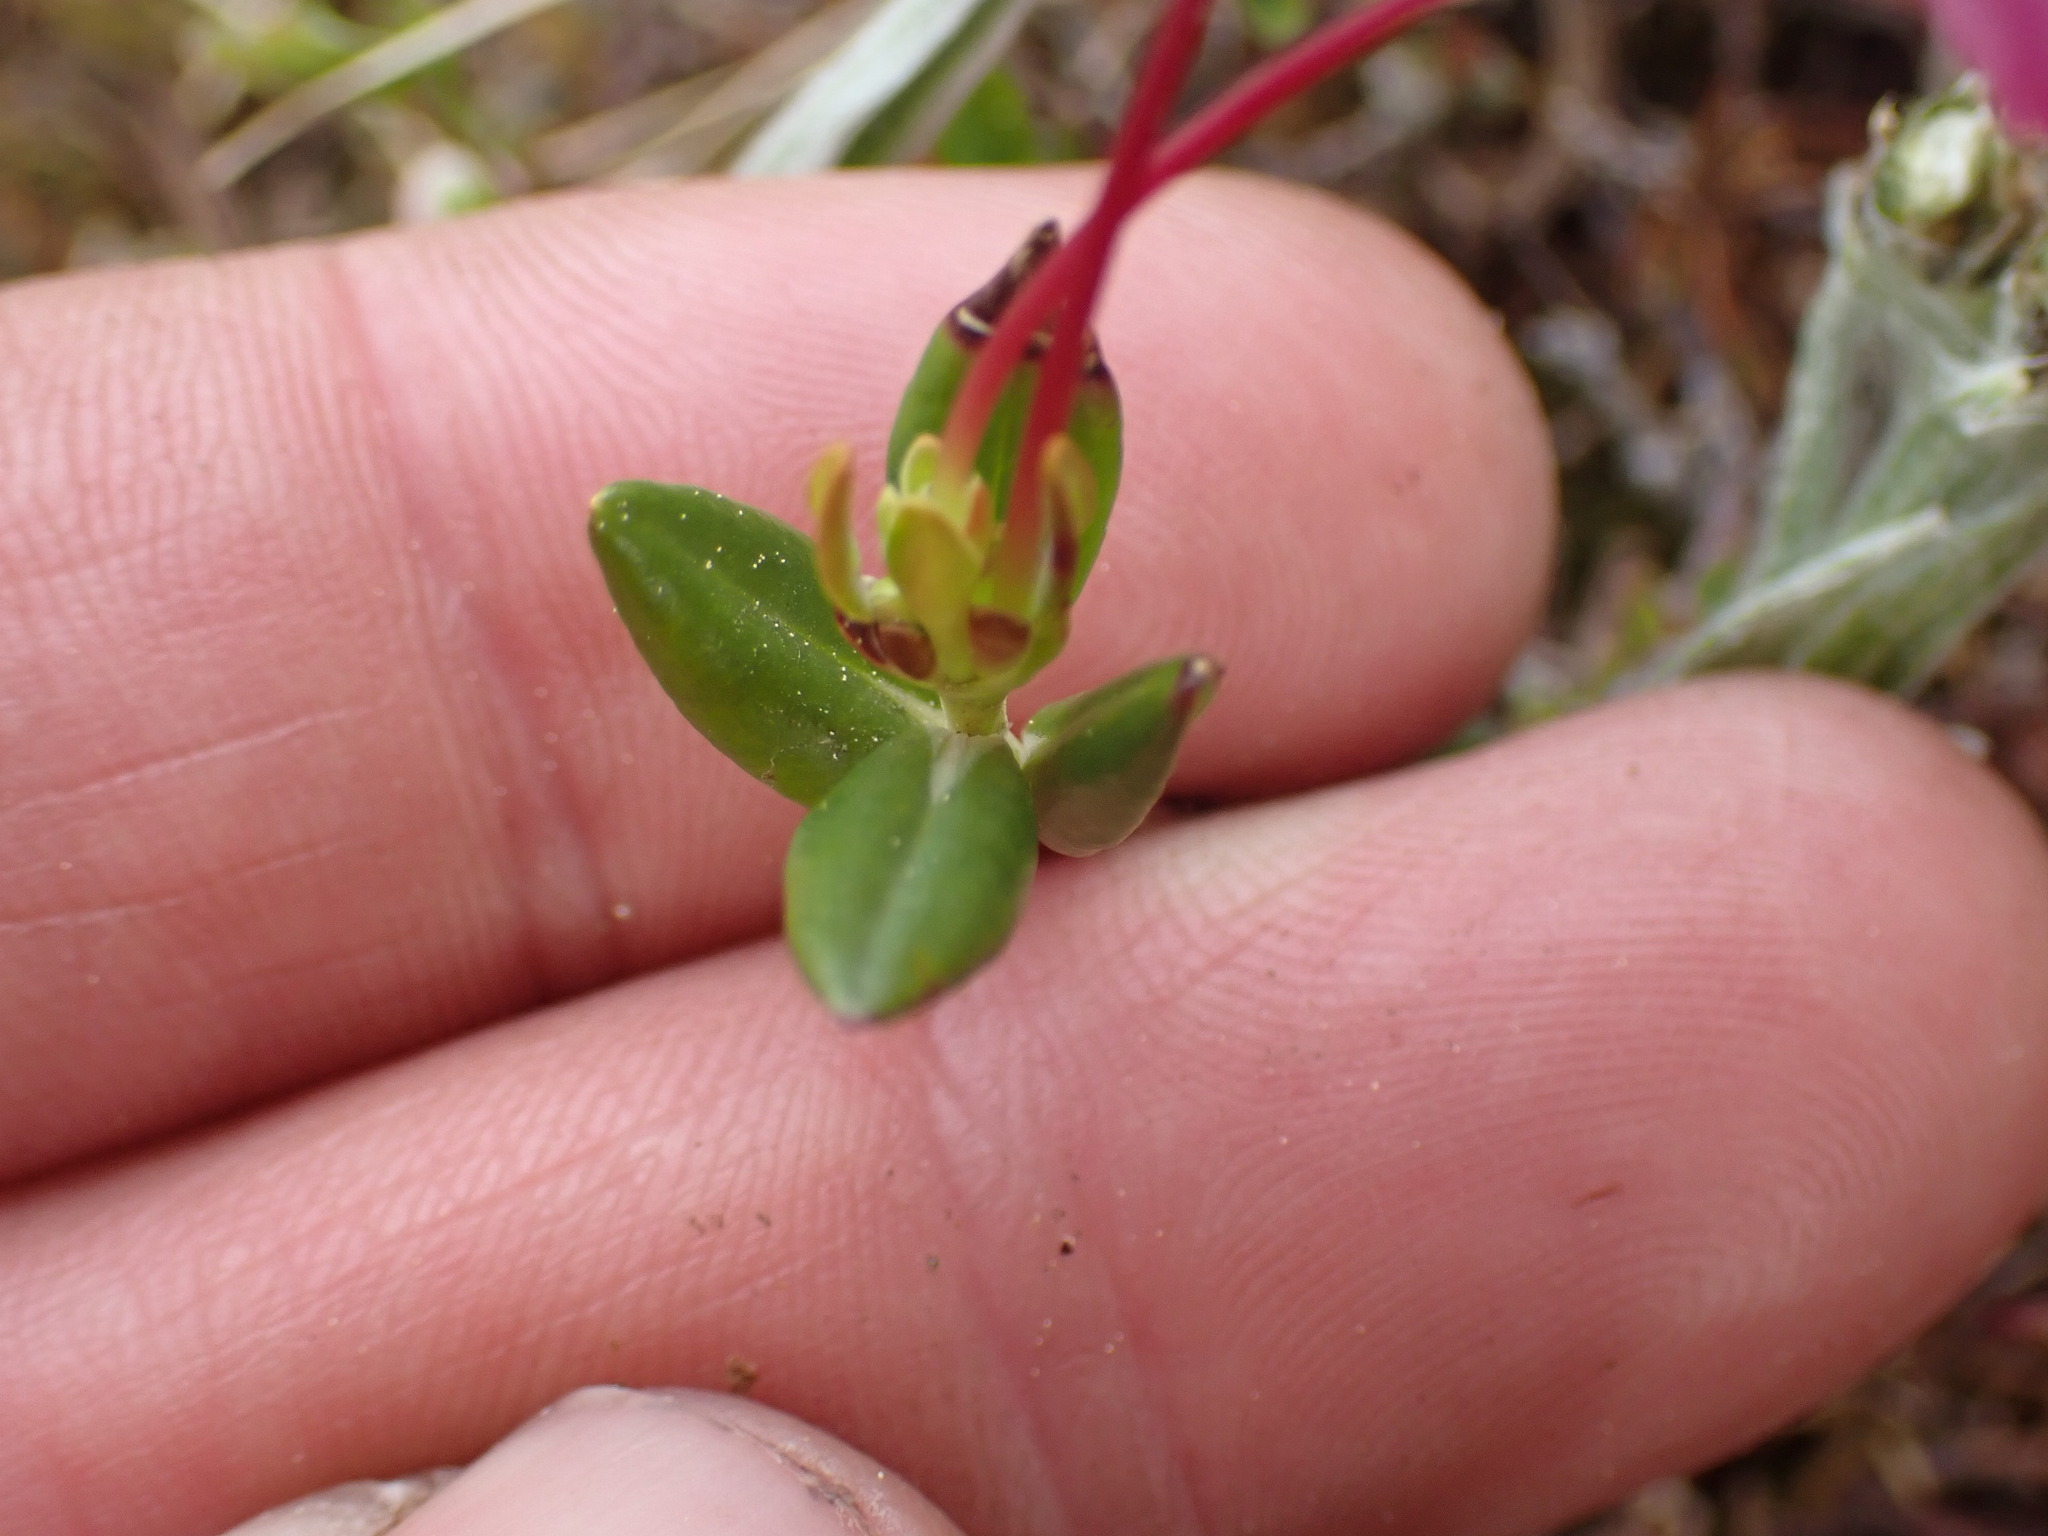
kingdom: Plantae
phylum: Tracheophyta
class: Magnoliopsida
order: Ericales
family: Ericaceae
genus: Kalmia
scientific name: Kalmia microphylla
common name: Alpine bog laurel
